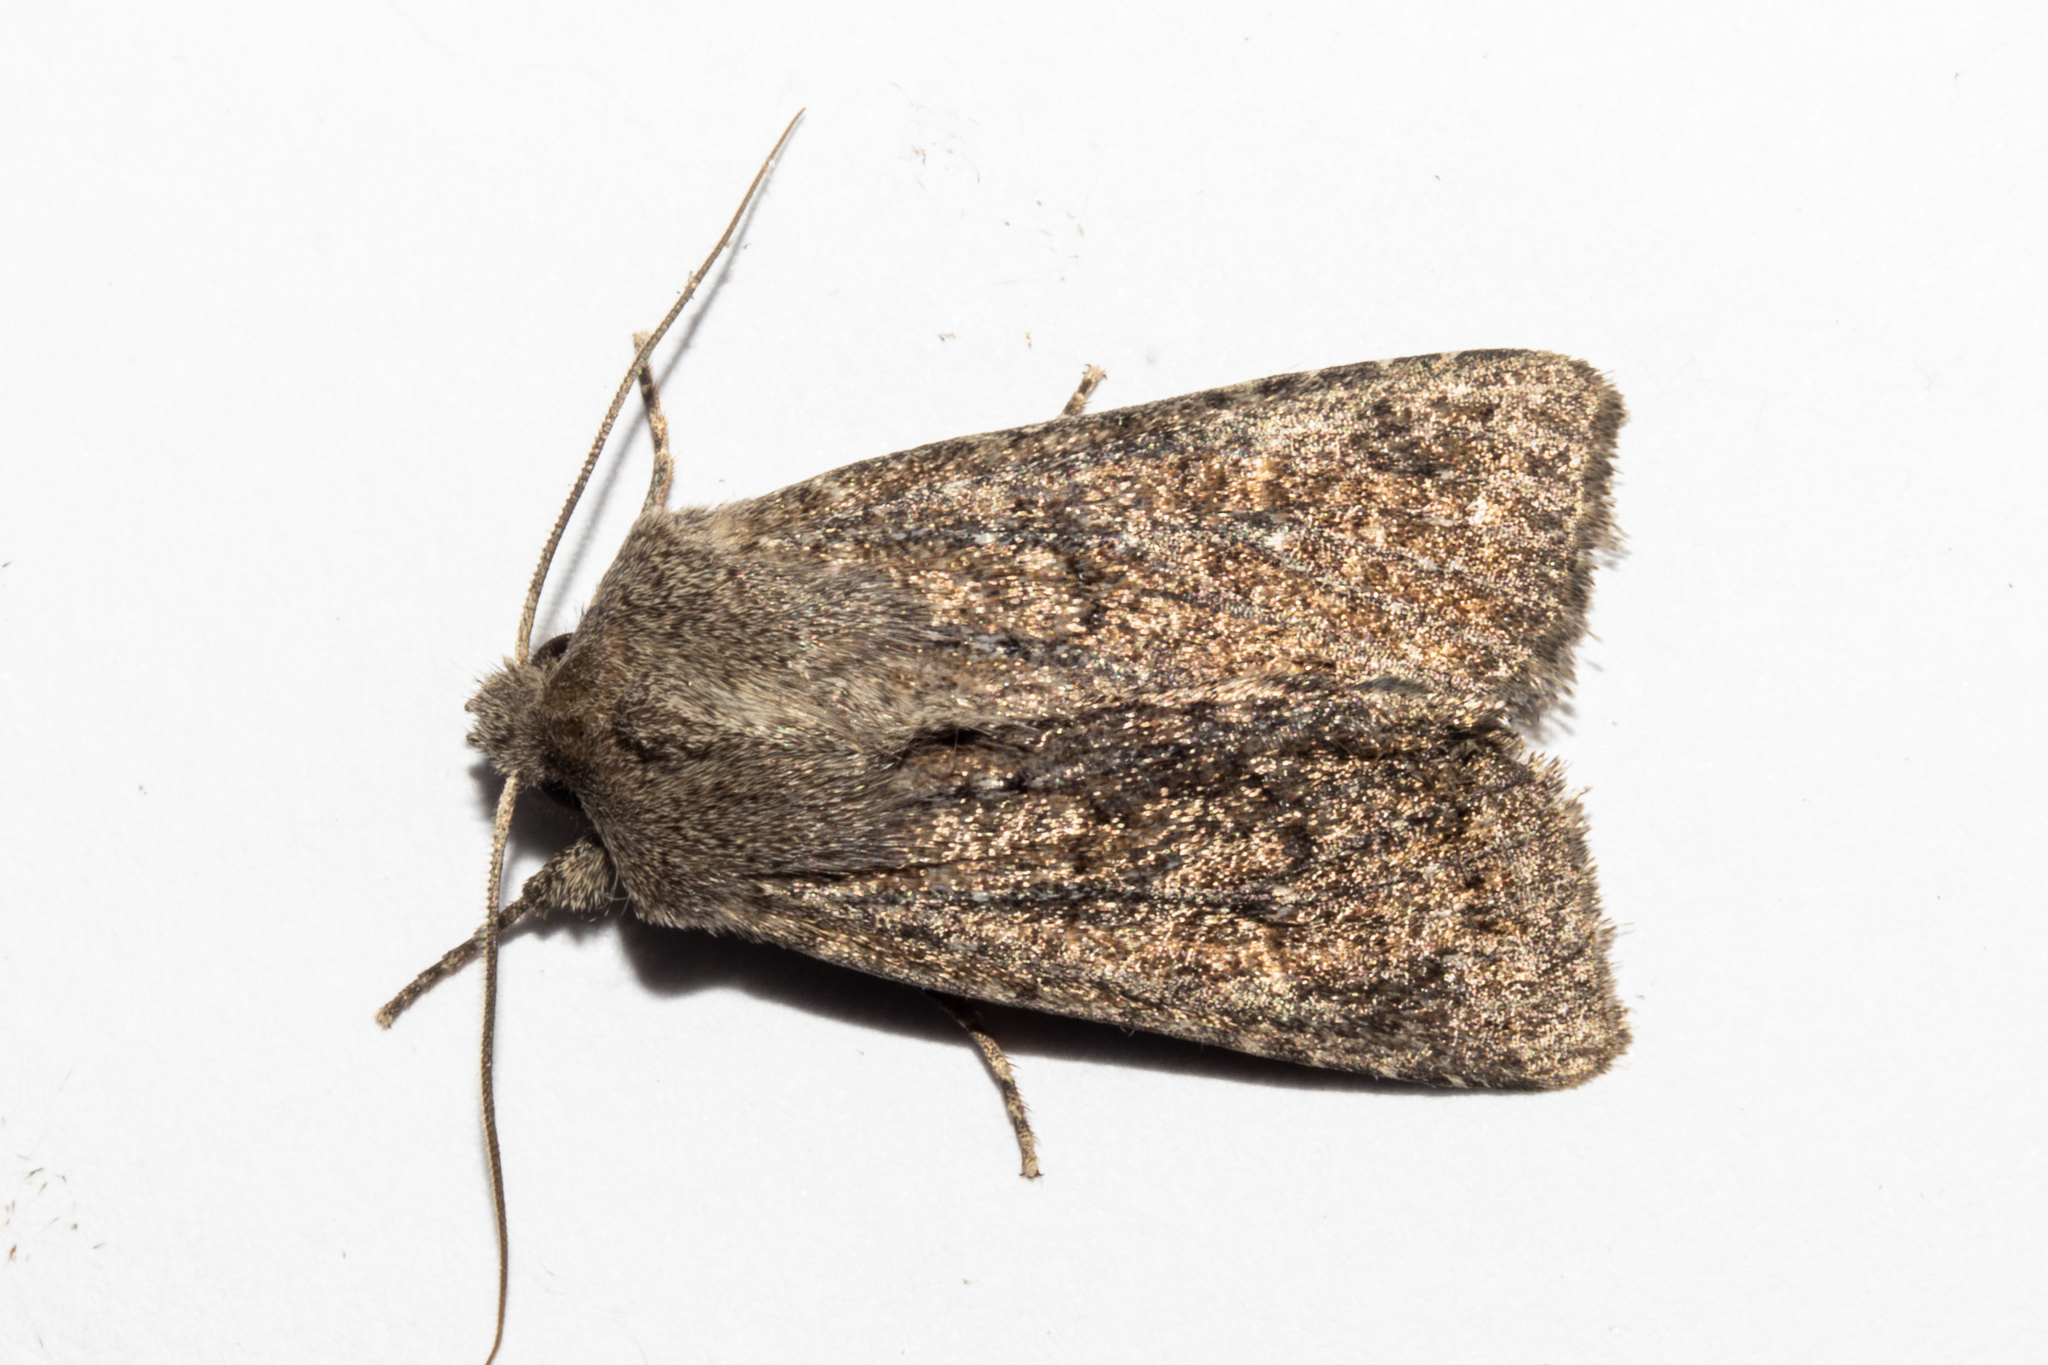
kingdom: Animalia
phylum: Arthropoda
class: Insecta
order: Lepidoptera
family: Noctuidae
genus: Physetica
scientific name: Physetica
